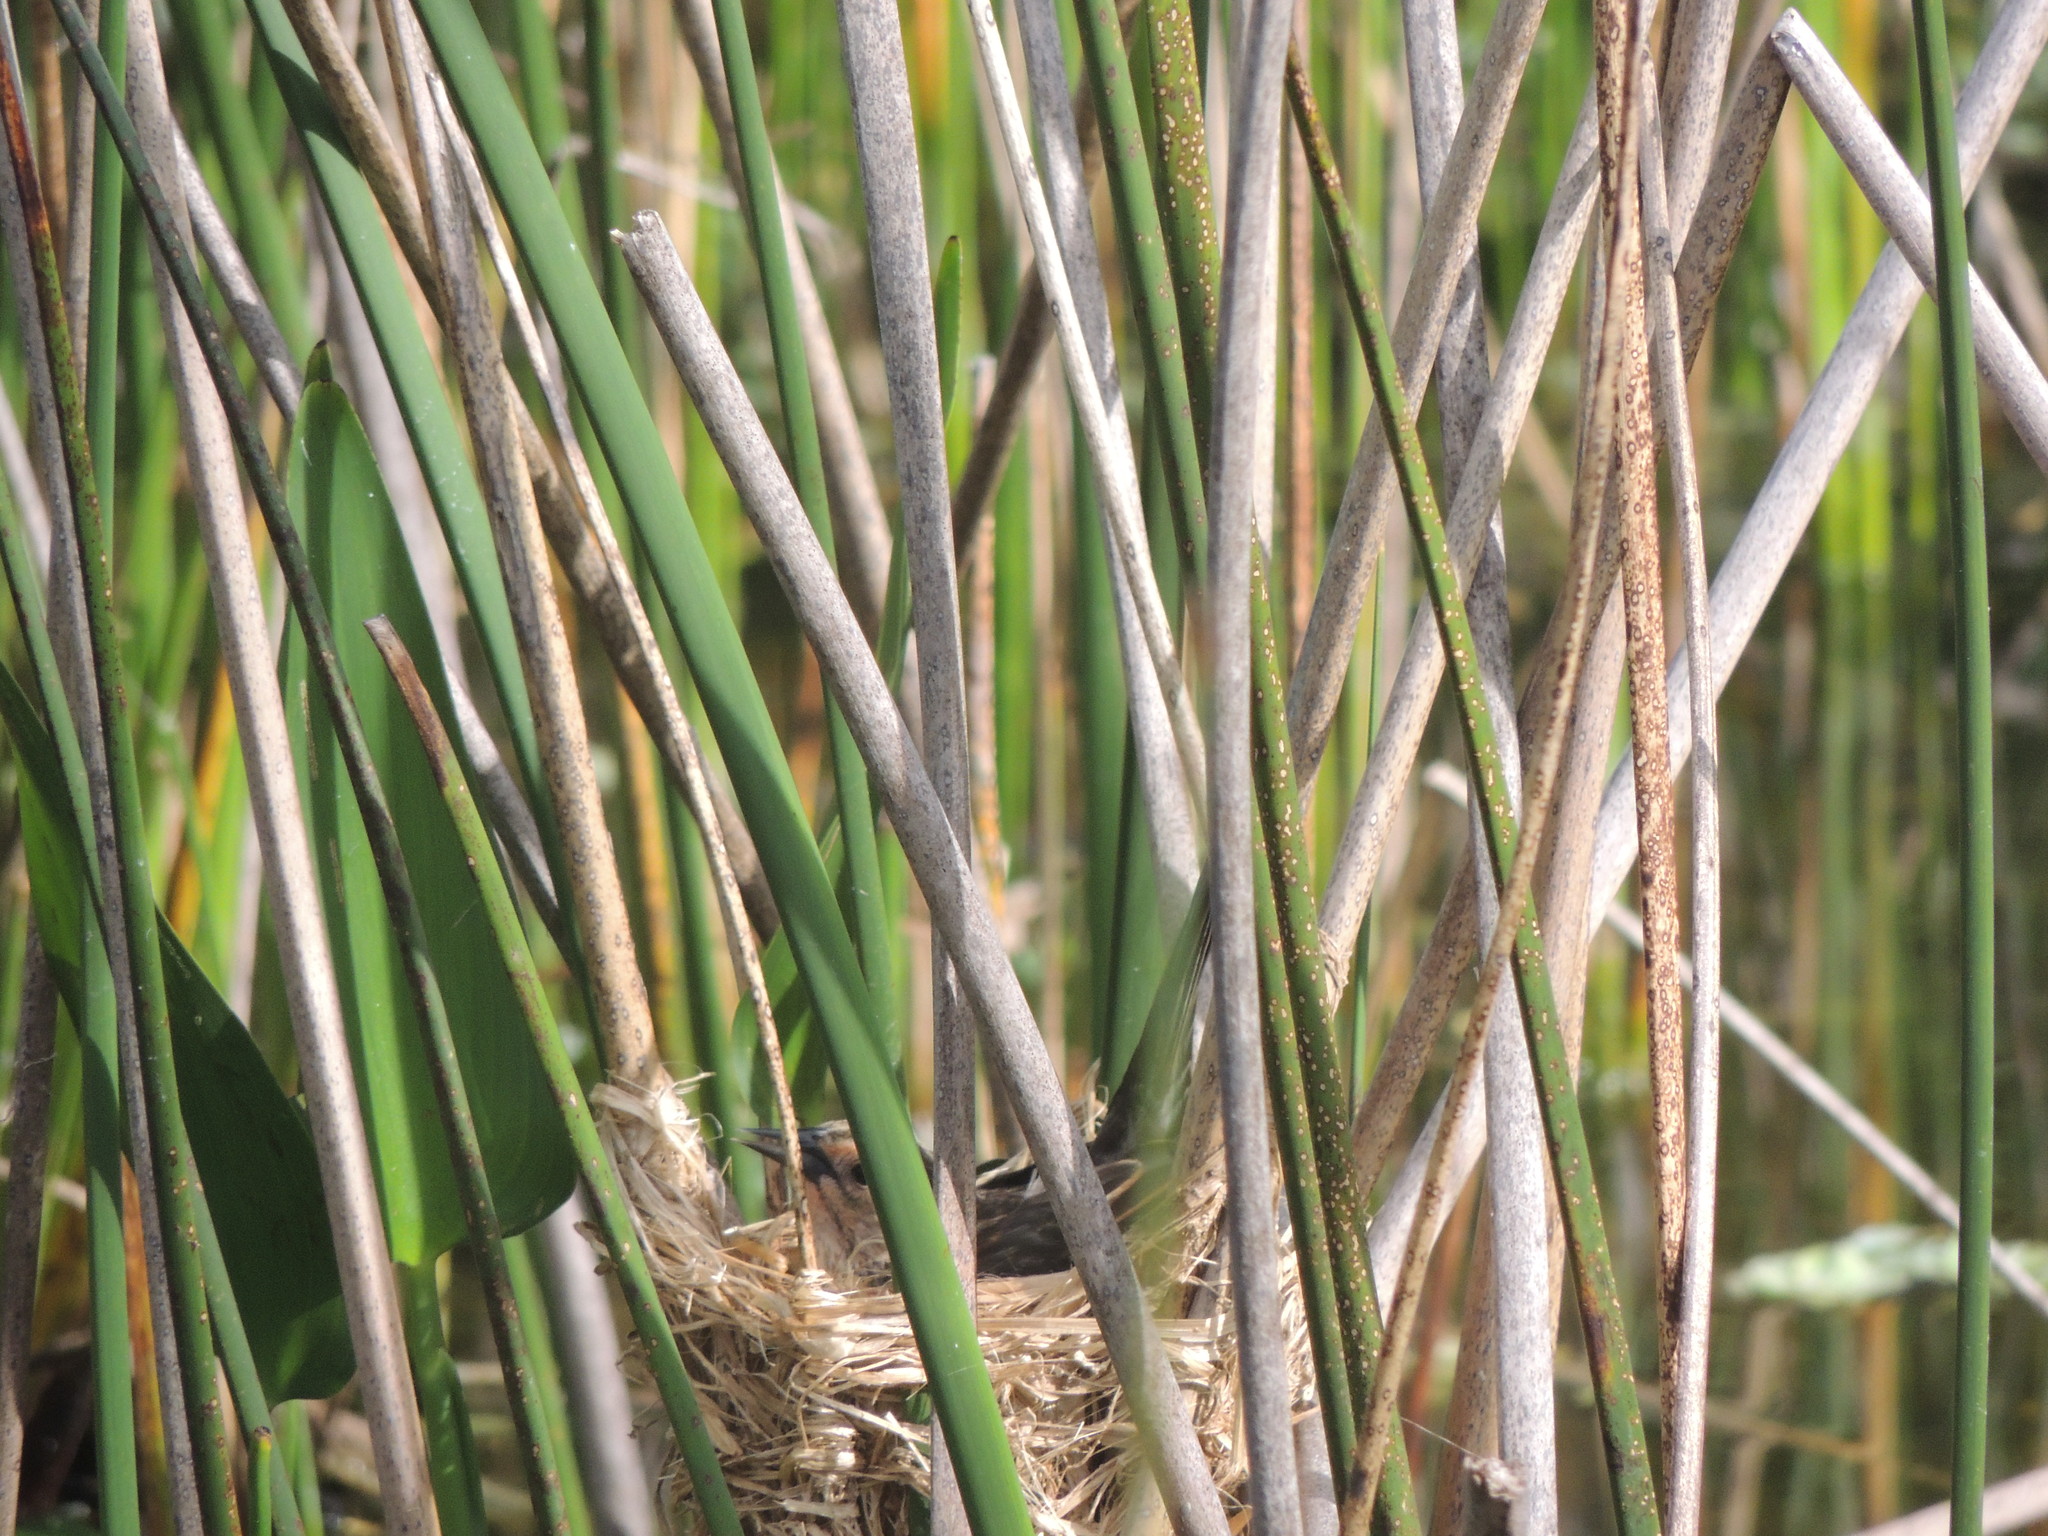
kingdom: Animalia
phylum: Chordata
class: Aves
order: Passeriformes
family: Icteridae
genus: Agelaius
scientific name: Agelaius phoeniceus
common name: Red-winged blackbird
